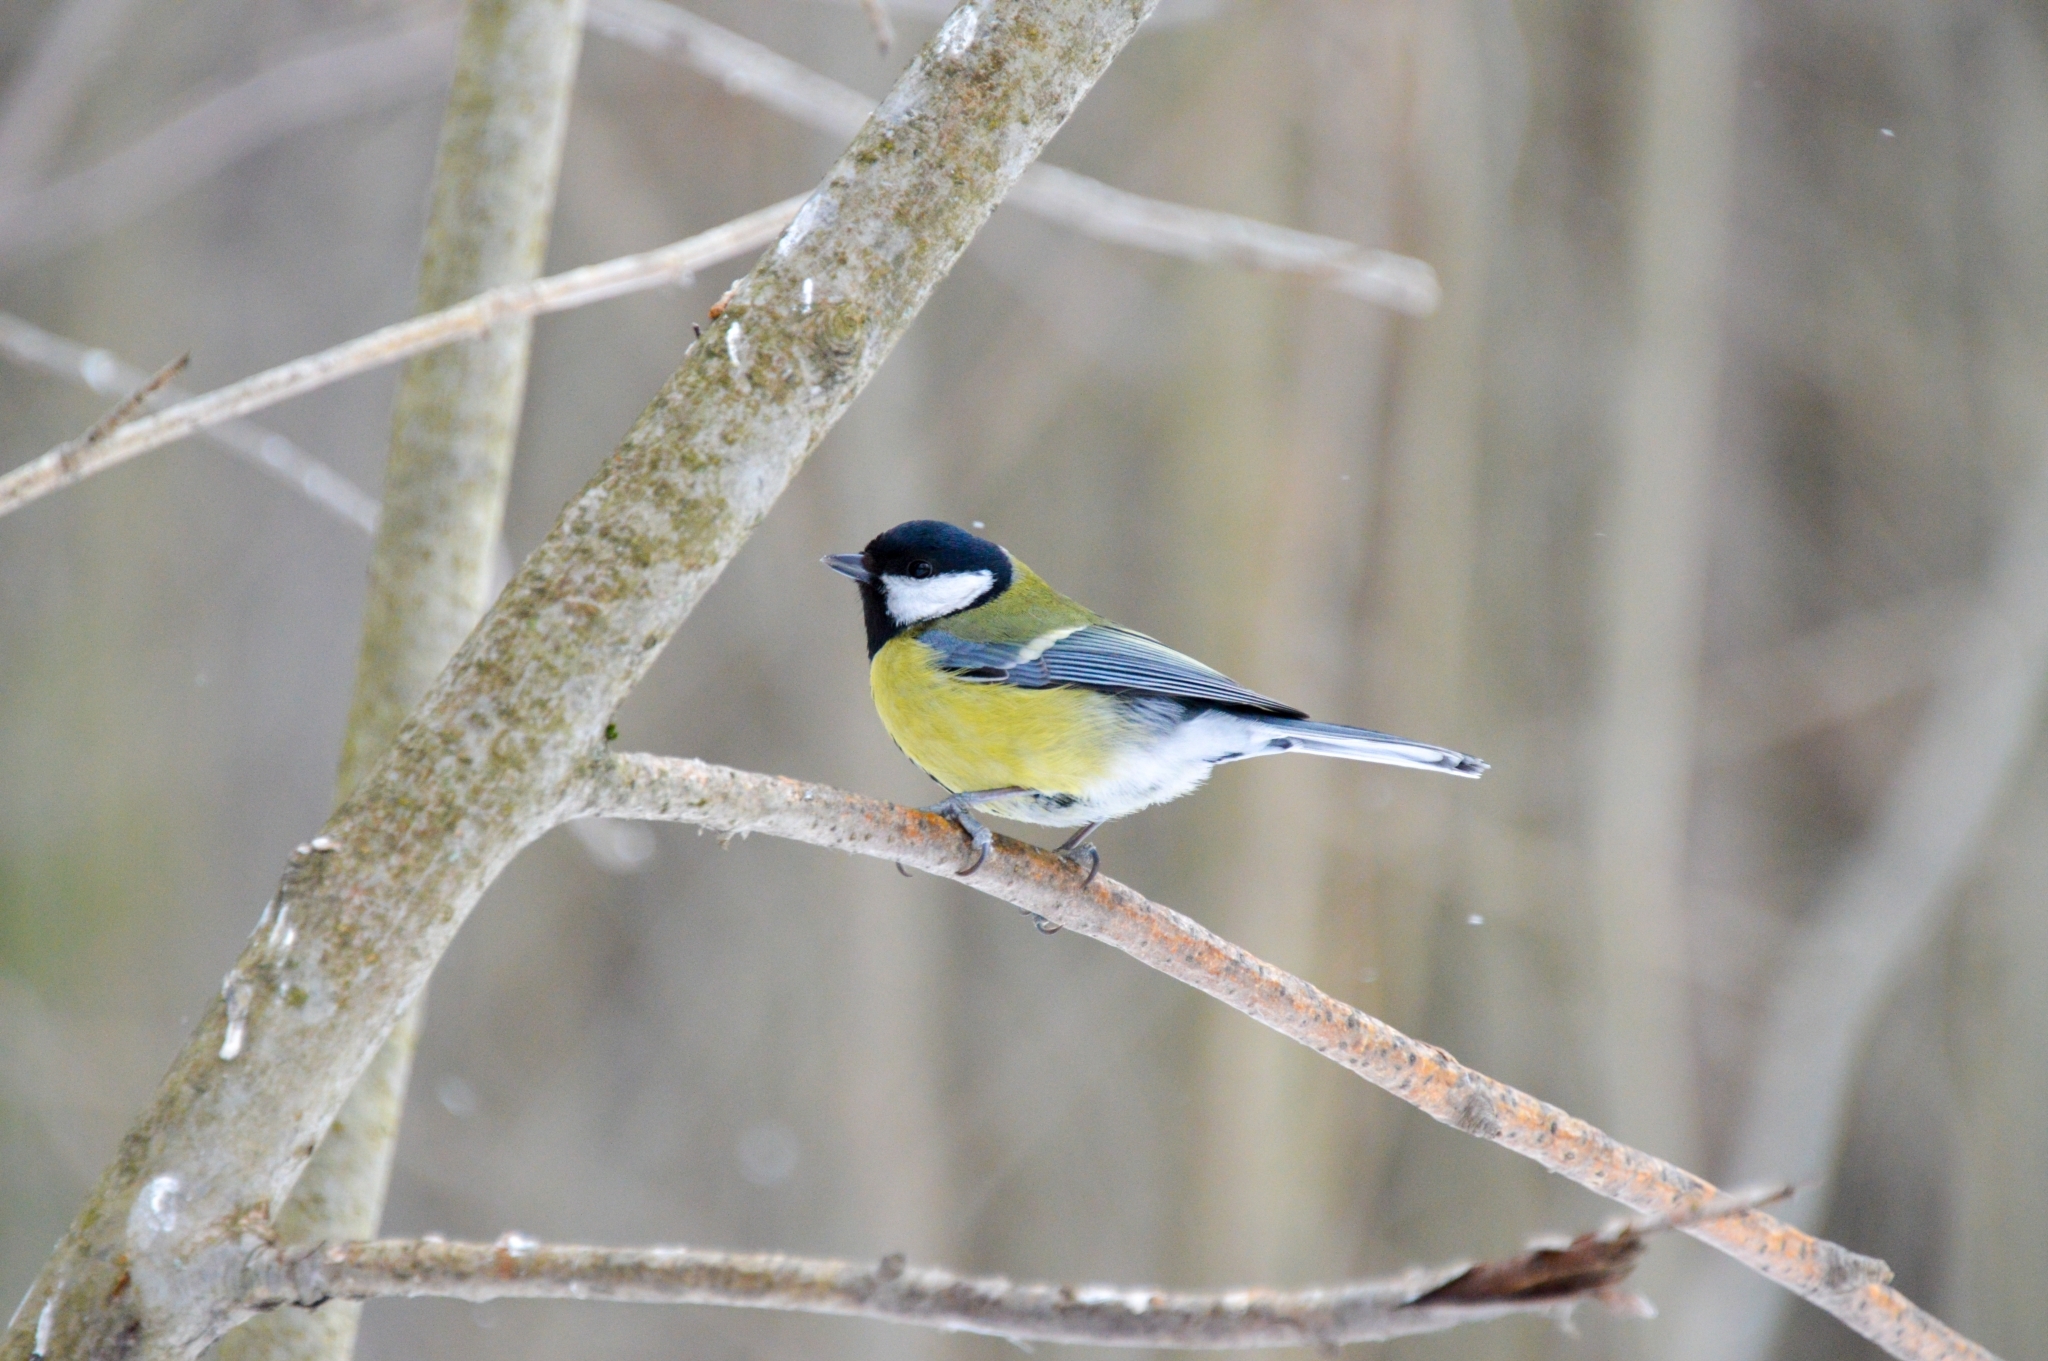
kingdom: Animalia
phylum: Chordata
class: Aves
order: Passeriformes
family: Paridae
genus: Parus
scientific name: Parus major
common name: Great tit
